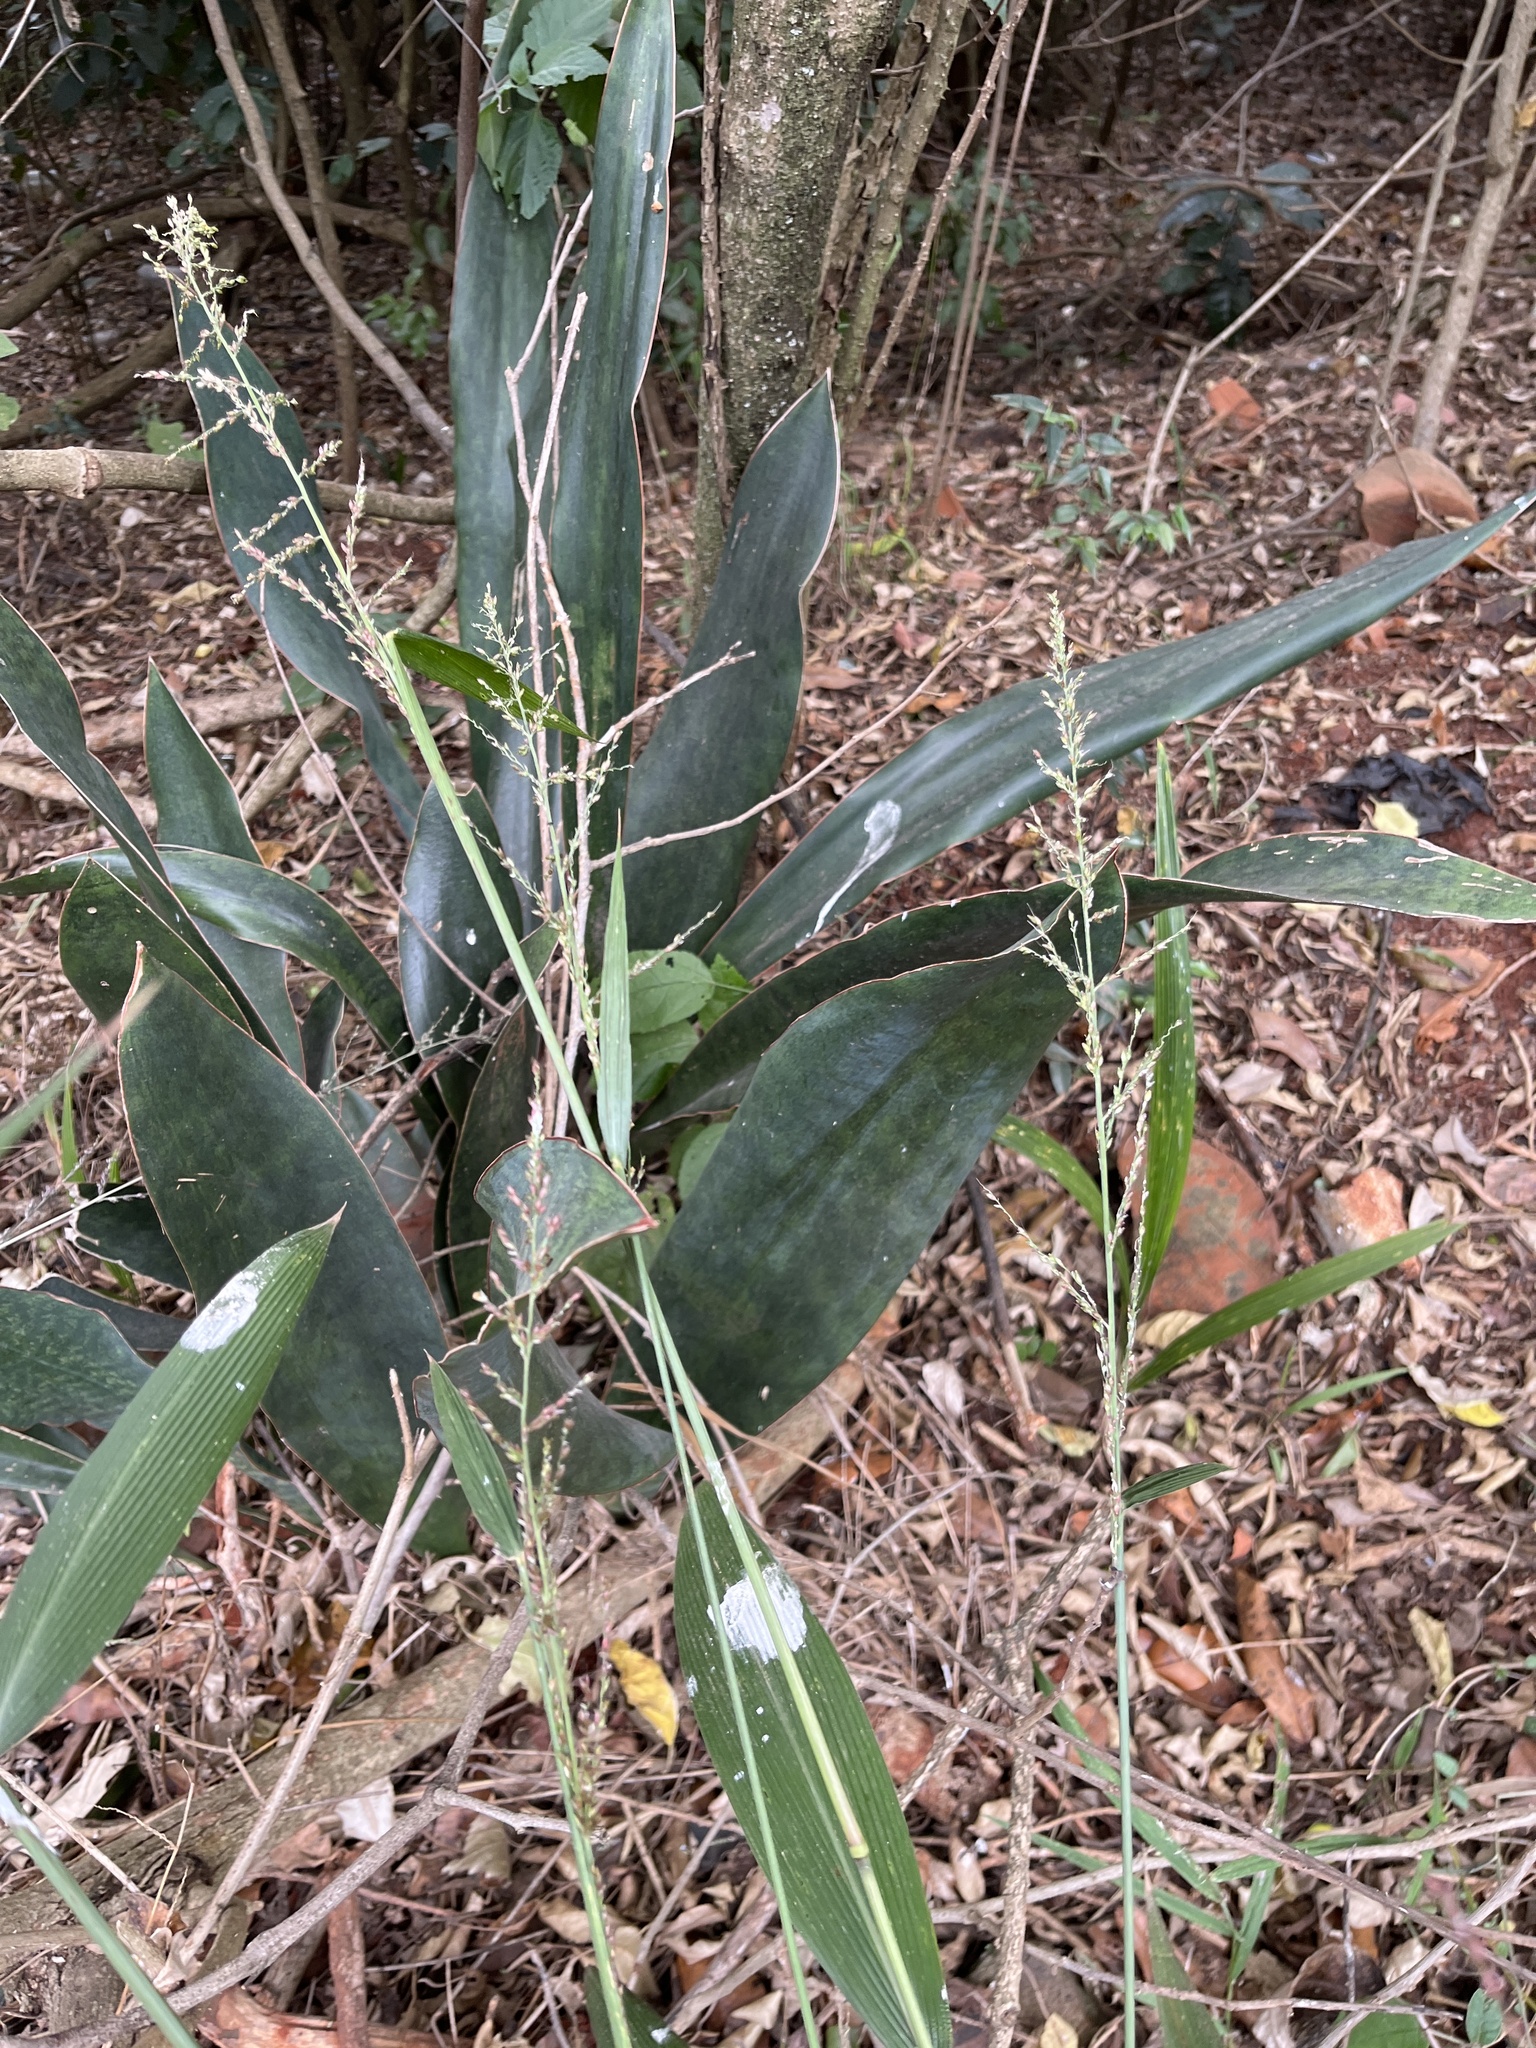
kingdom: Plantae
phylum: Tracheophyta
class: Liliopsida
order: Asparagales
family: Asparagaceae
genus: Dracaena
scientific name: Dracaena trifasciata
